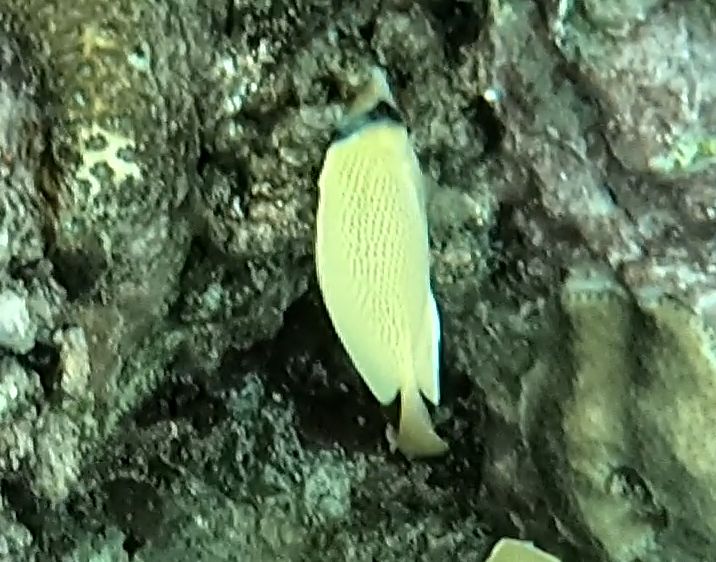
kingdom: Animalia
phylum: Chordata
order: Perciformes
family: Chaetodontidae
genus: Chaetodon
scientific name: Chaetodon citrinellus
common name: Speckled butterflyfish
